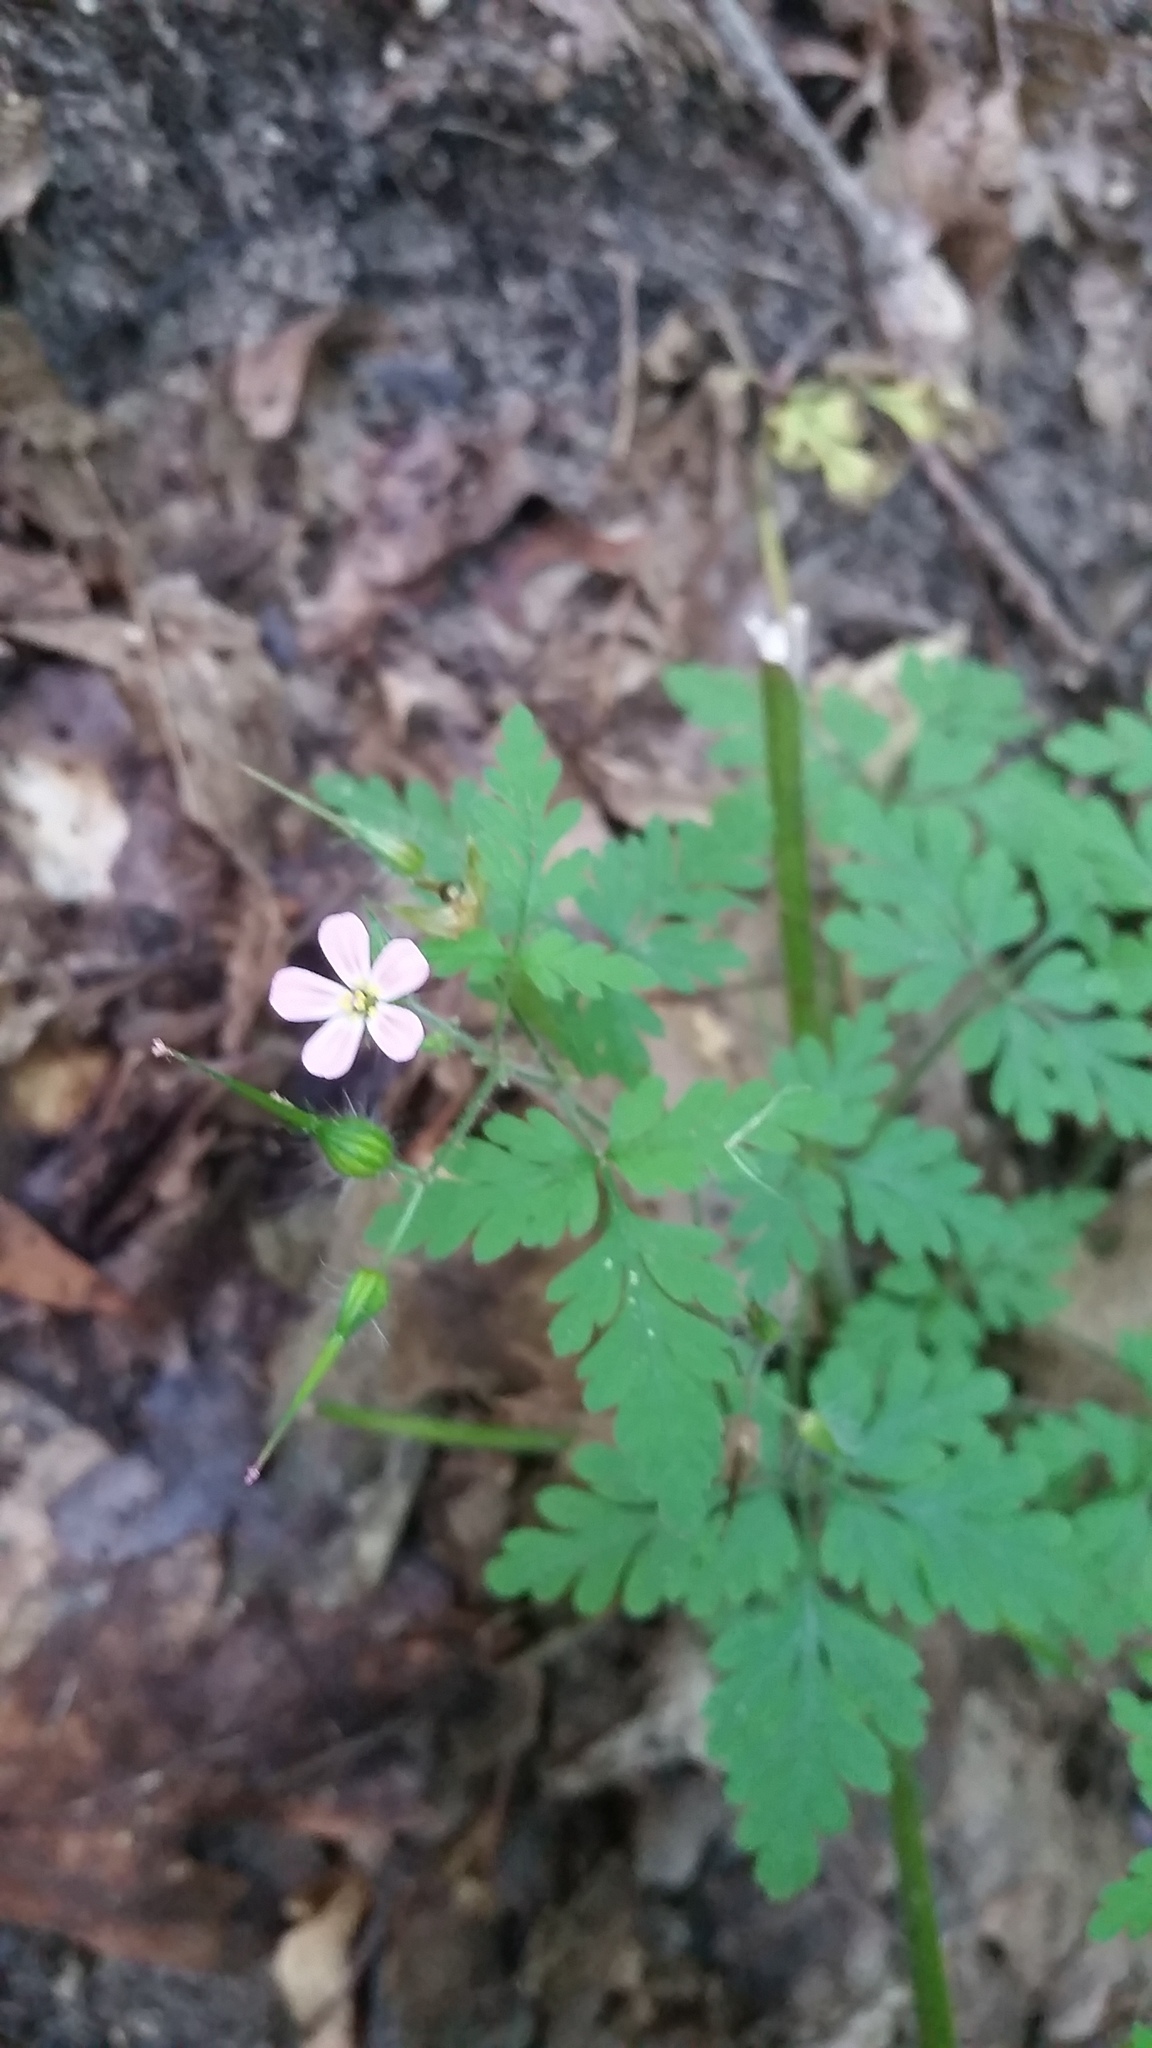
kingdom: Plantae
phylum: Tracheophyta
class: Magnoliopsida
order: Geraniales
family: Geraniaceae
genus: Geranium
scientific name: Geranium robertianum
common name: Herb-robert
